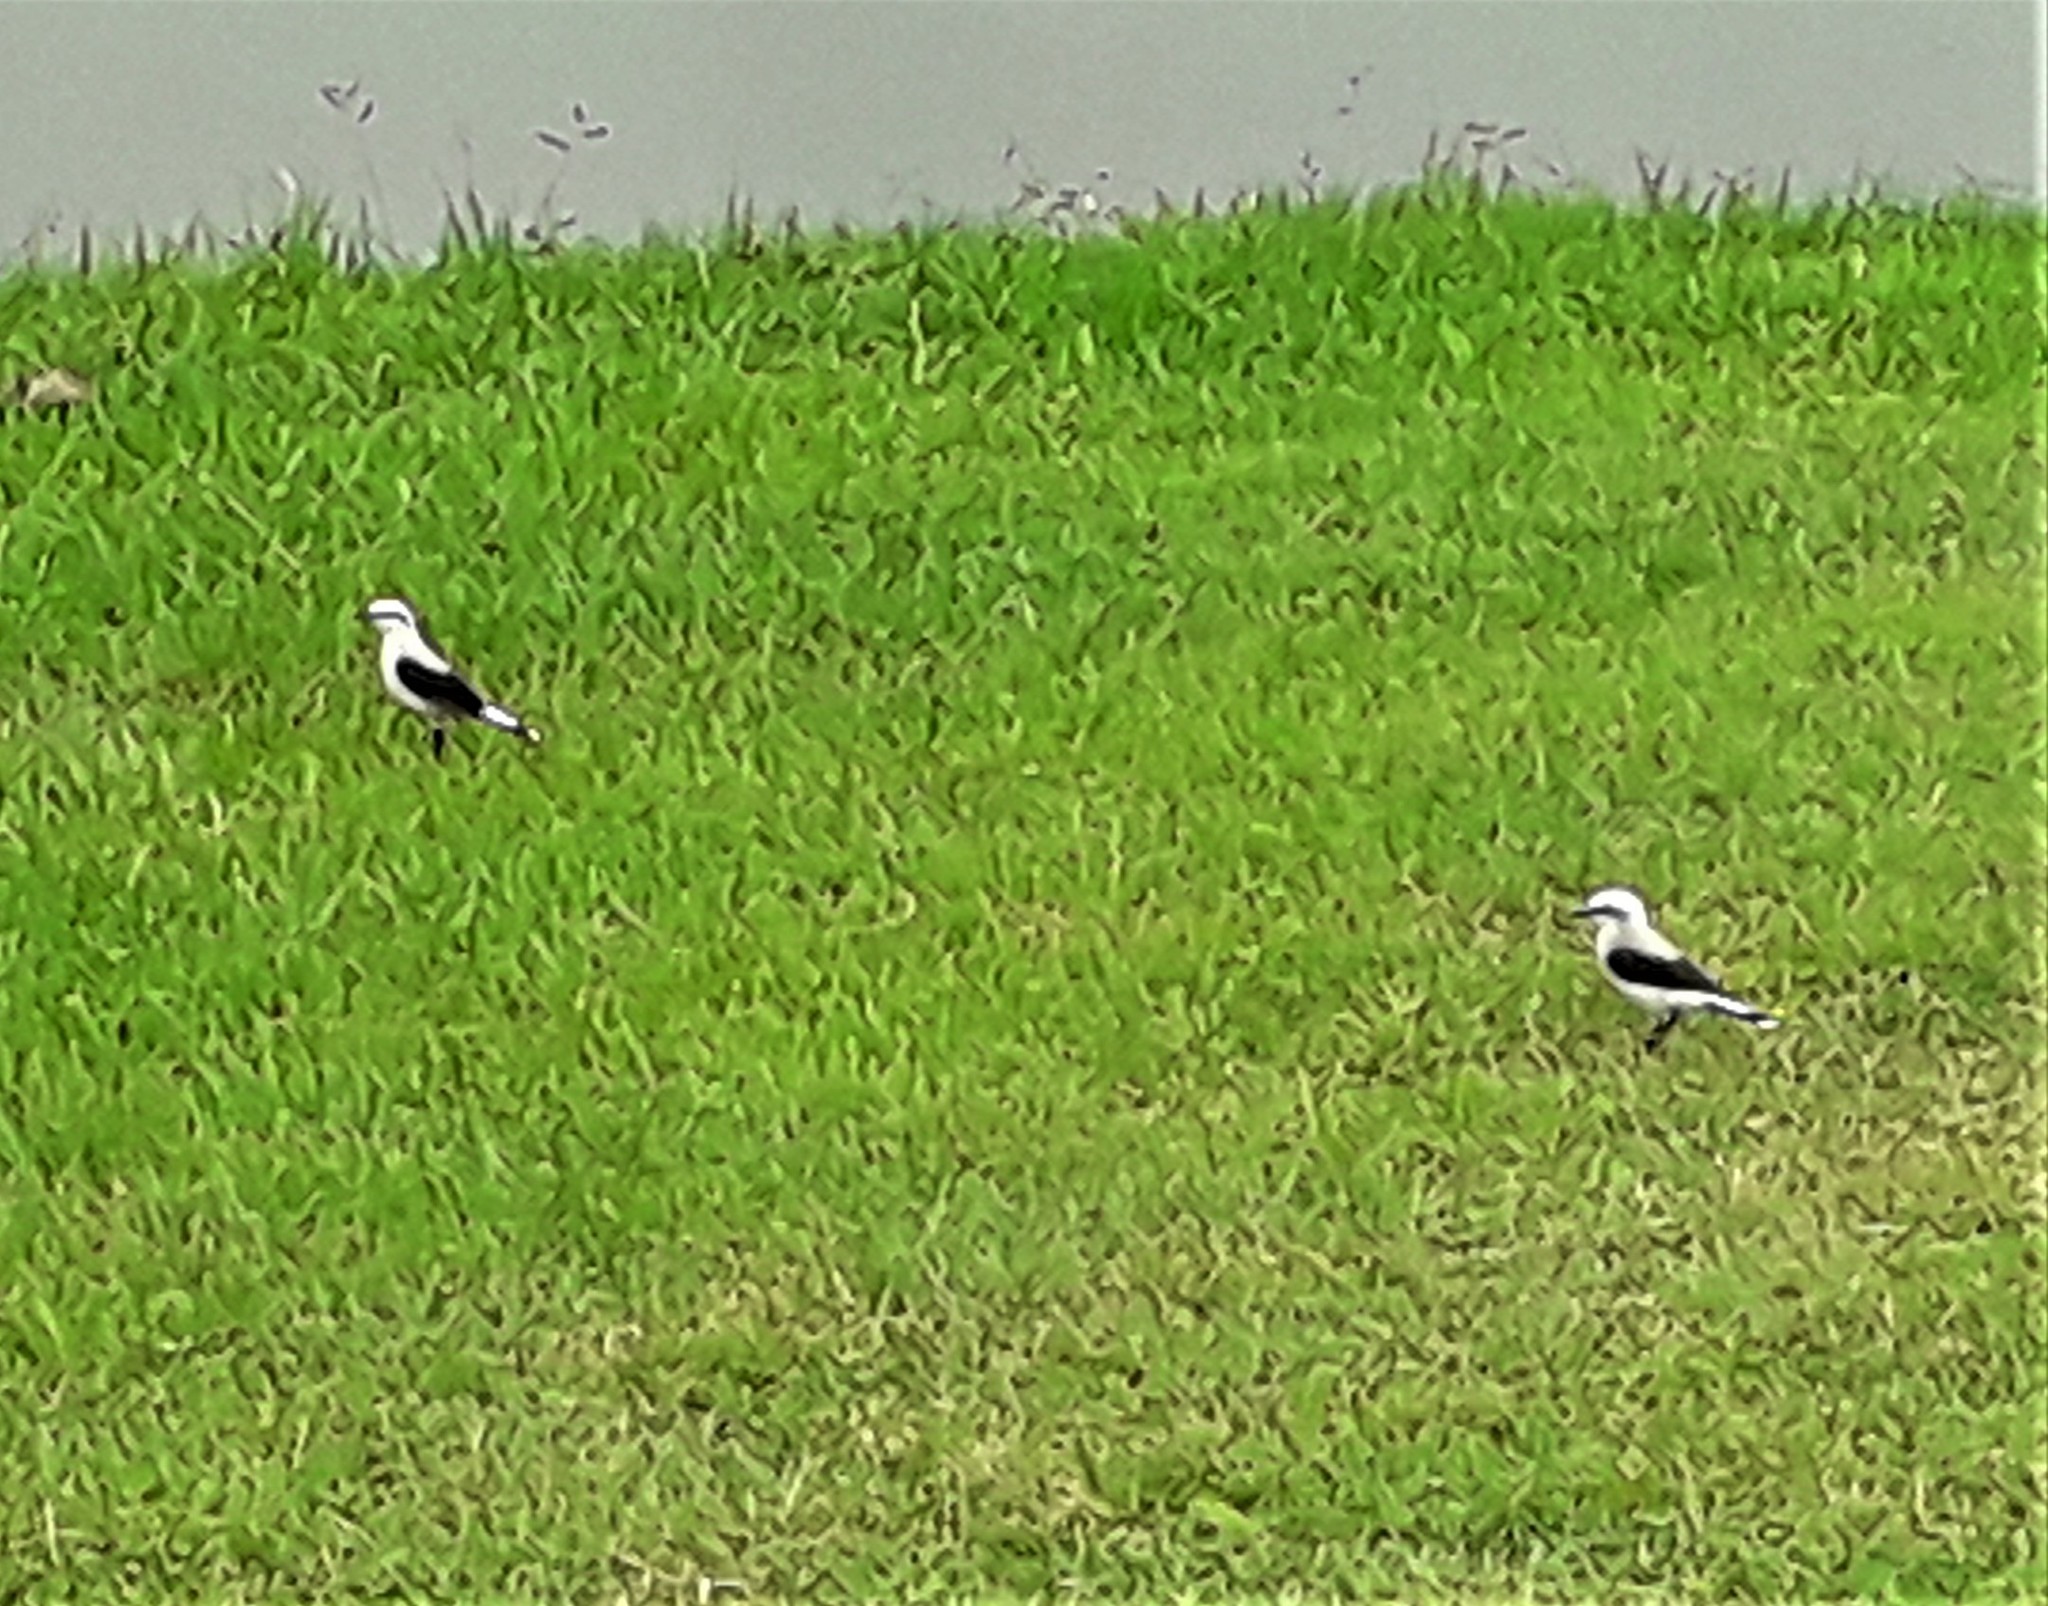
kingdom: Animalia
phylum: Chordata
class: Aves
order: Passeriformes
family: Tyrannidae
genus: Fluvicola
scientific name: Fluvicola nengeta
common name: Masked water tyrant
